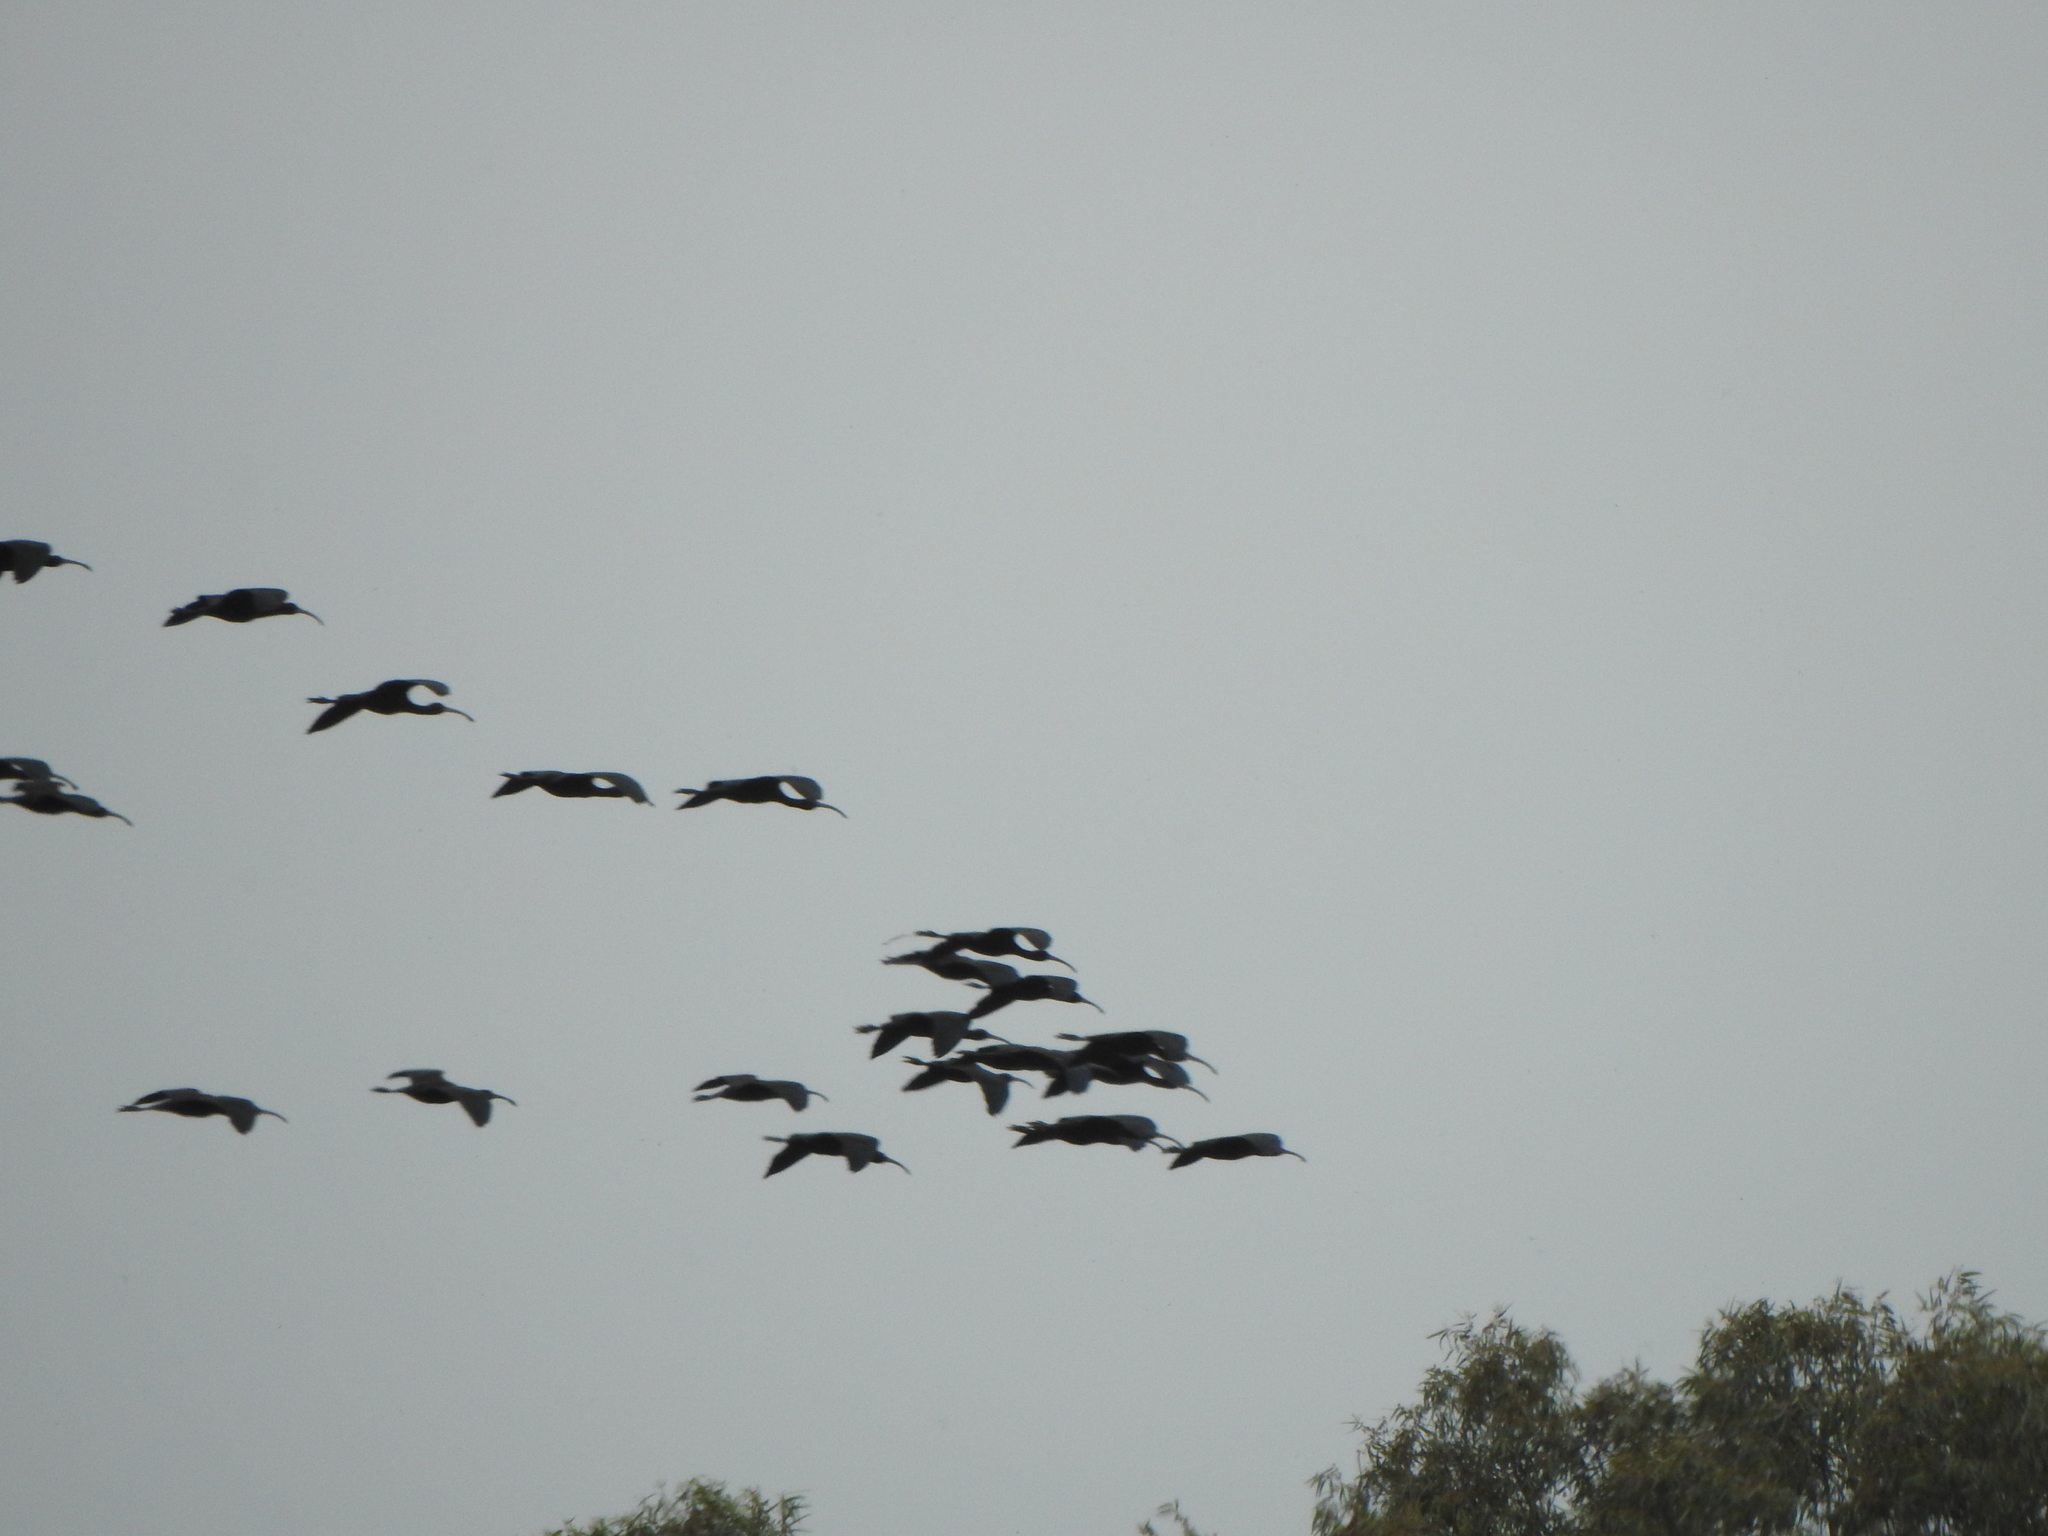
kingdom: Animalia
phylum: Chordata
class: Aves
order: Pelecaniformes
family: Threskiornithidae
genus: Plegadis
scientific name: Plegadis chihi
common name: White-faced ibis
